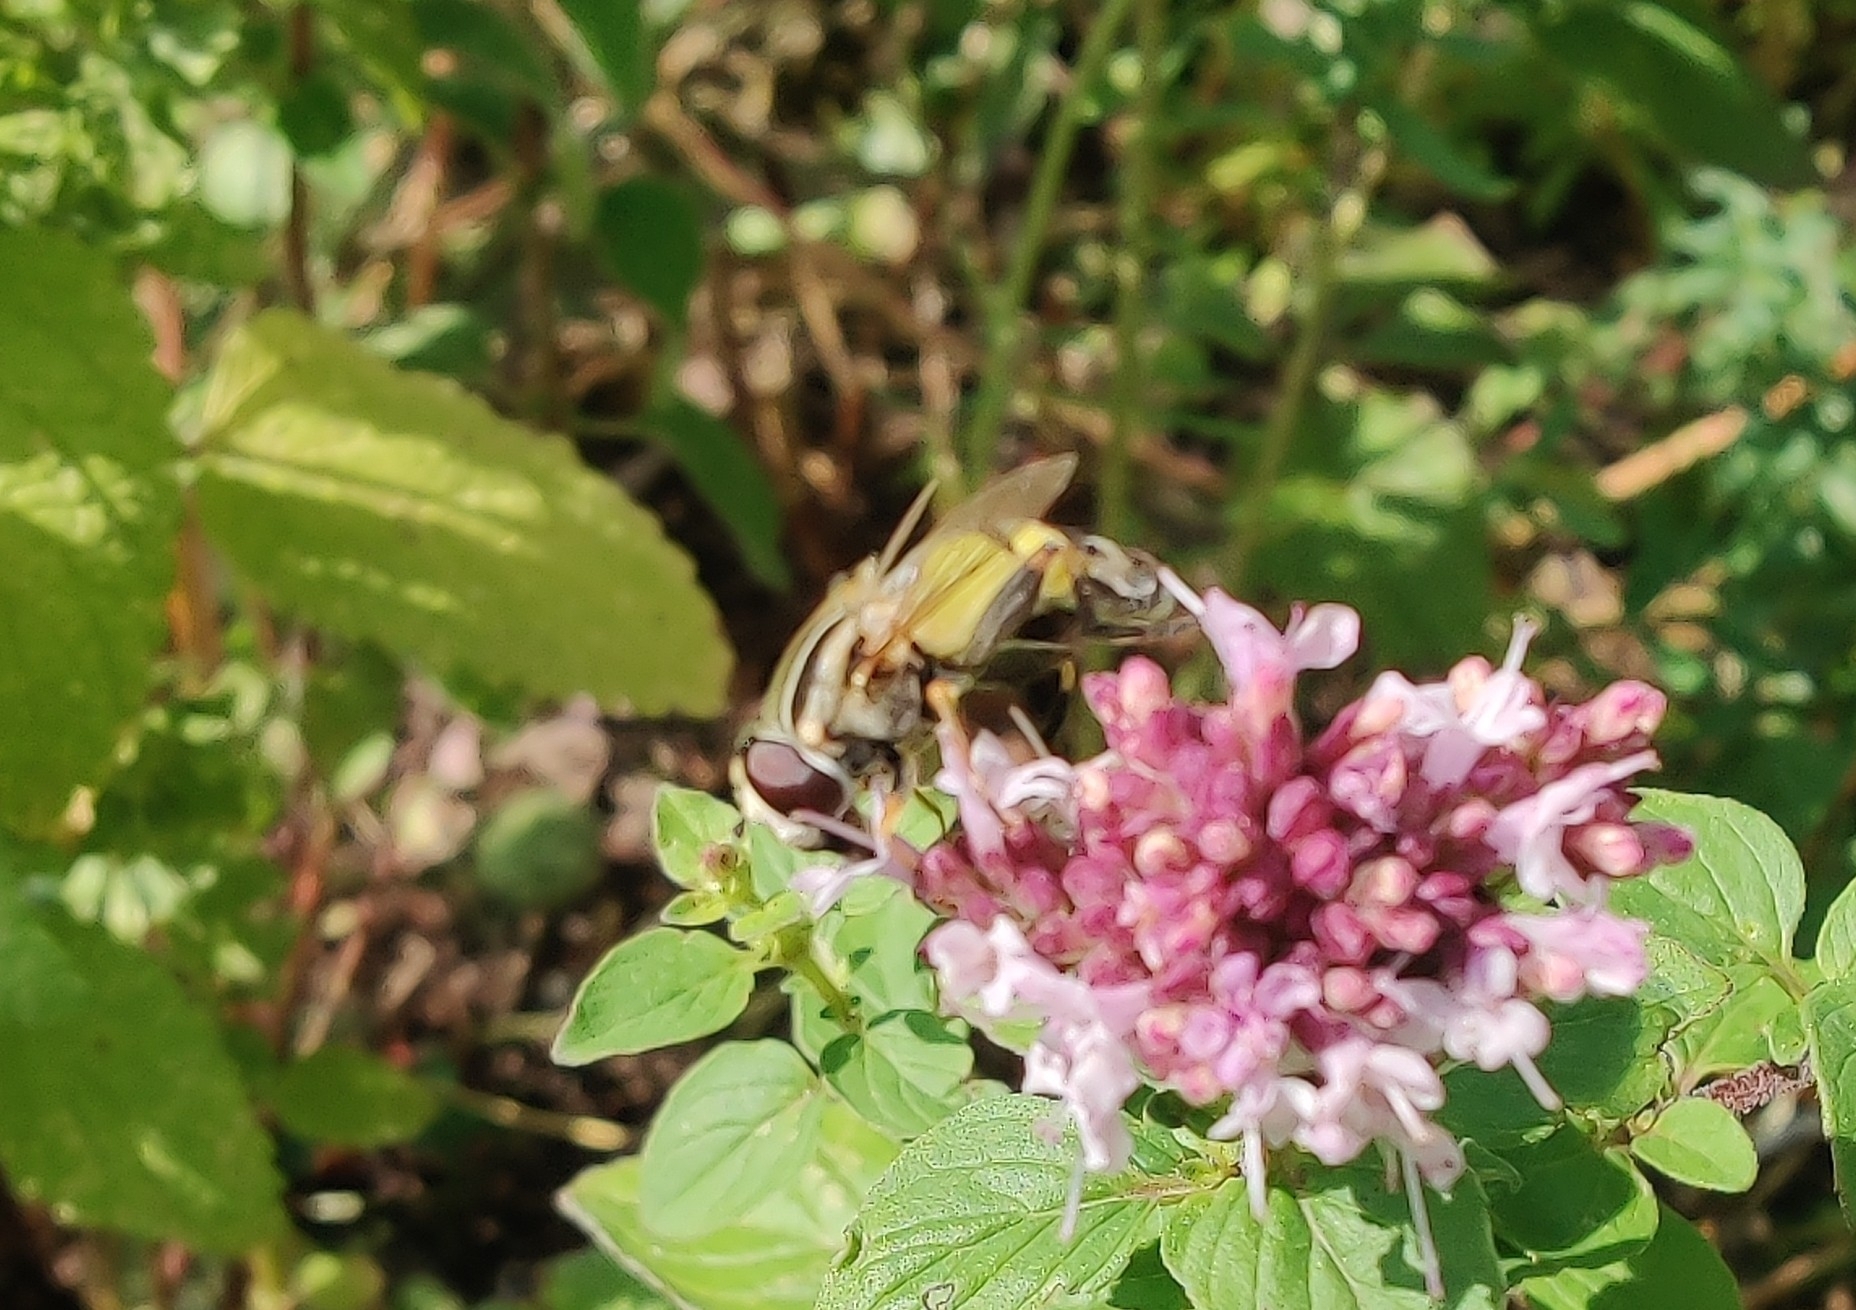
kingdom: Animalia
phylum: Arthropoda
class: Insecta
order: Diptera
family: Syrphidae
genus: Helophilus
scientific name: Helophilus trivittatus
